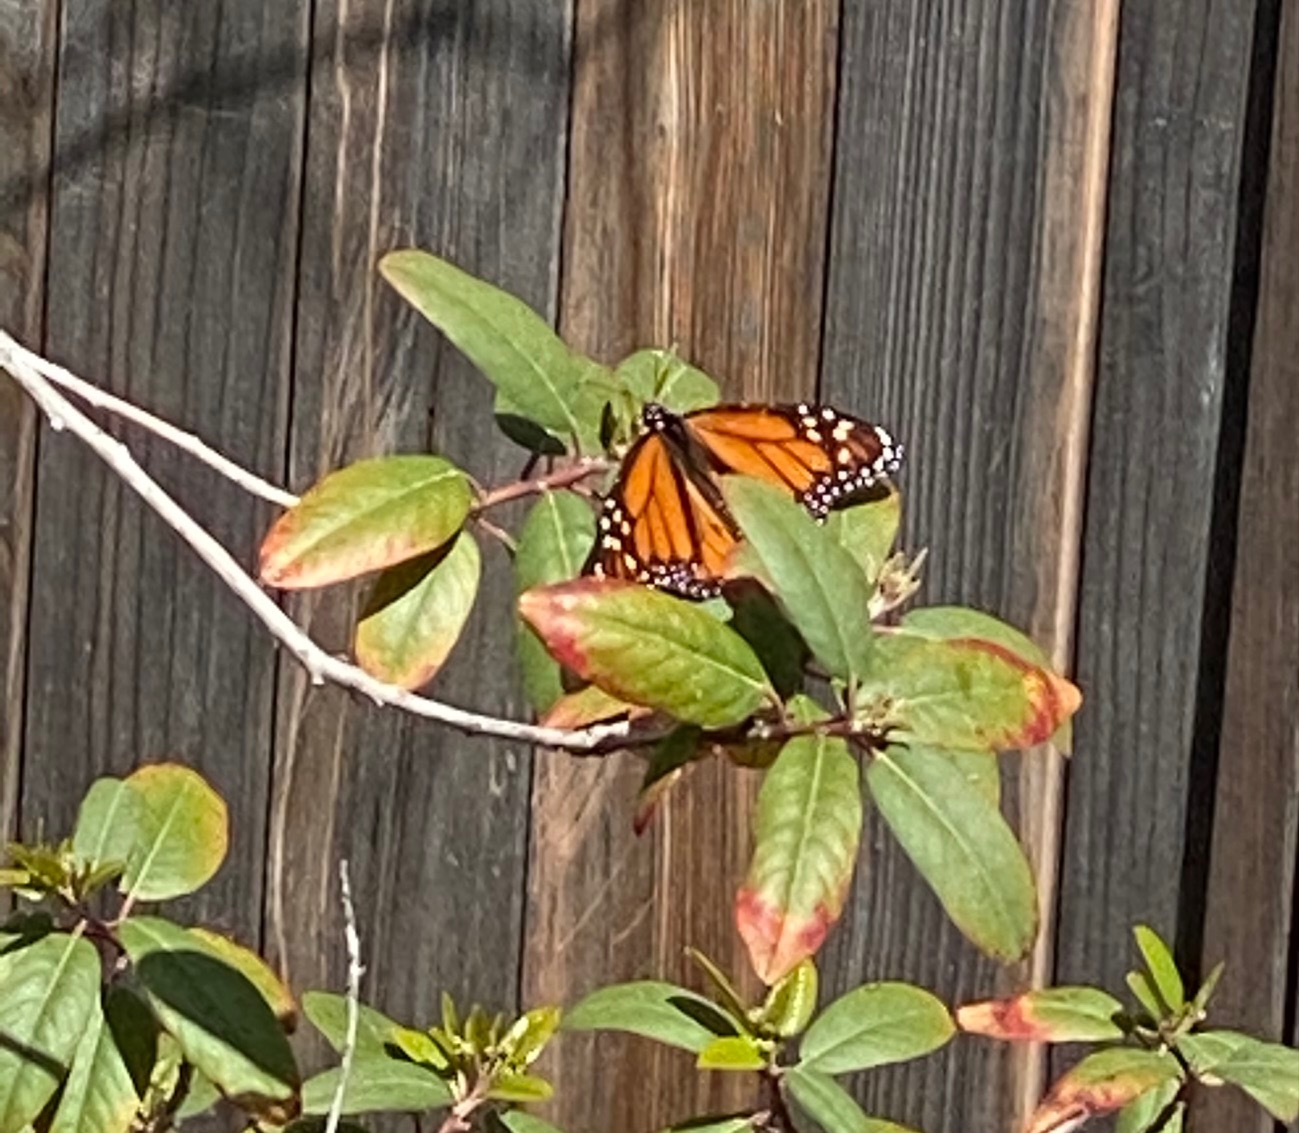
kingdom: Animalia
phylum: Arthropoda
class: Insecta
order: Lepidoptera
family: Nymphalidae
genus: Danaus
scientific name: Danaus plexippus
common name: Monarch
